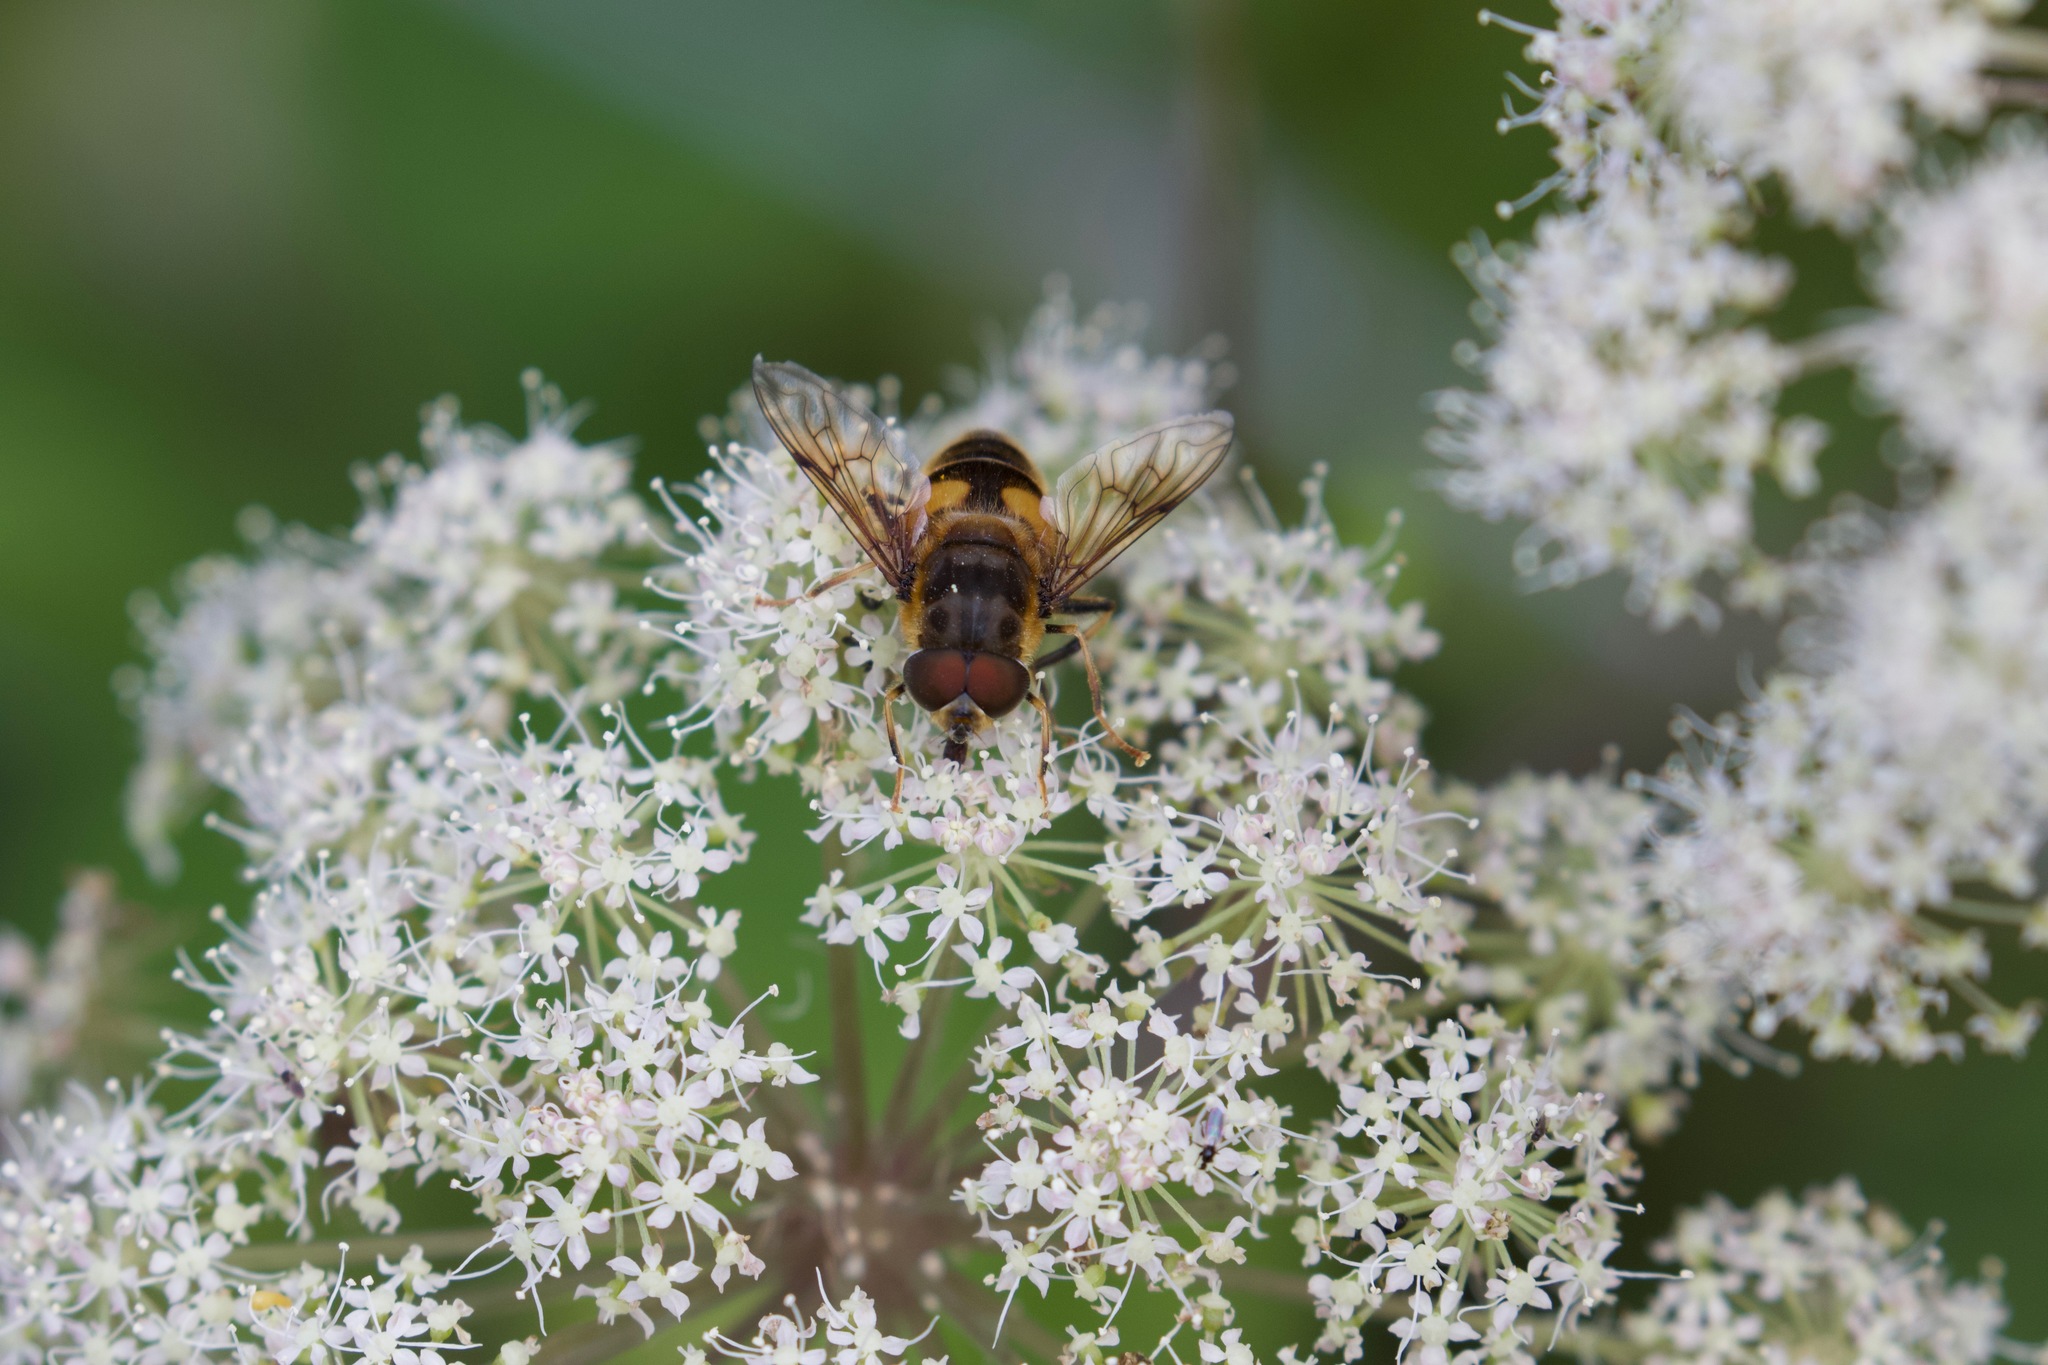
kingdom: Animalia
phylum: Arthropoda
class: Insecta
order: Diptera
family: Syrphidae
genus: Eristalis
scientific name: Eristalis pertinax
